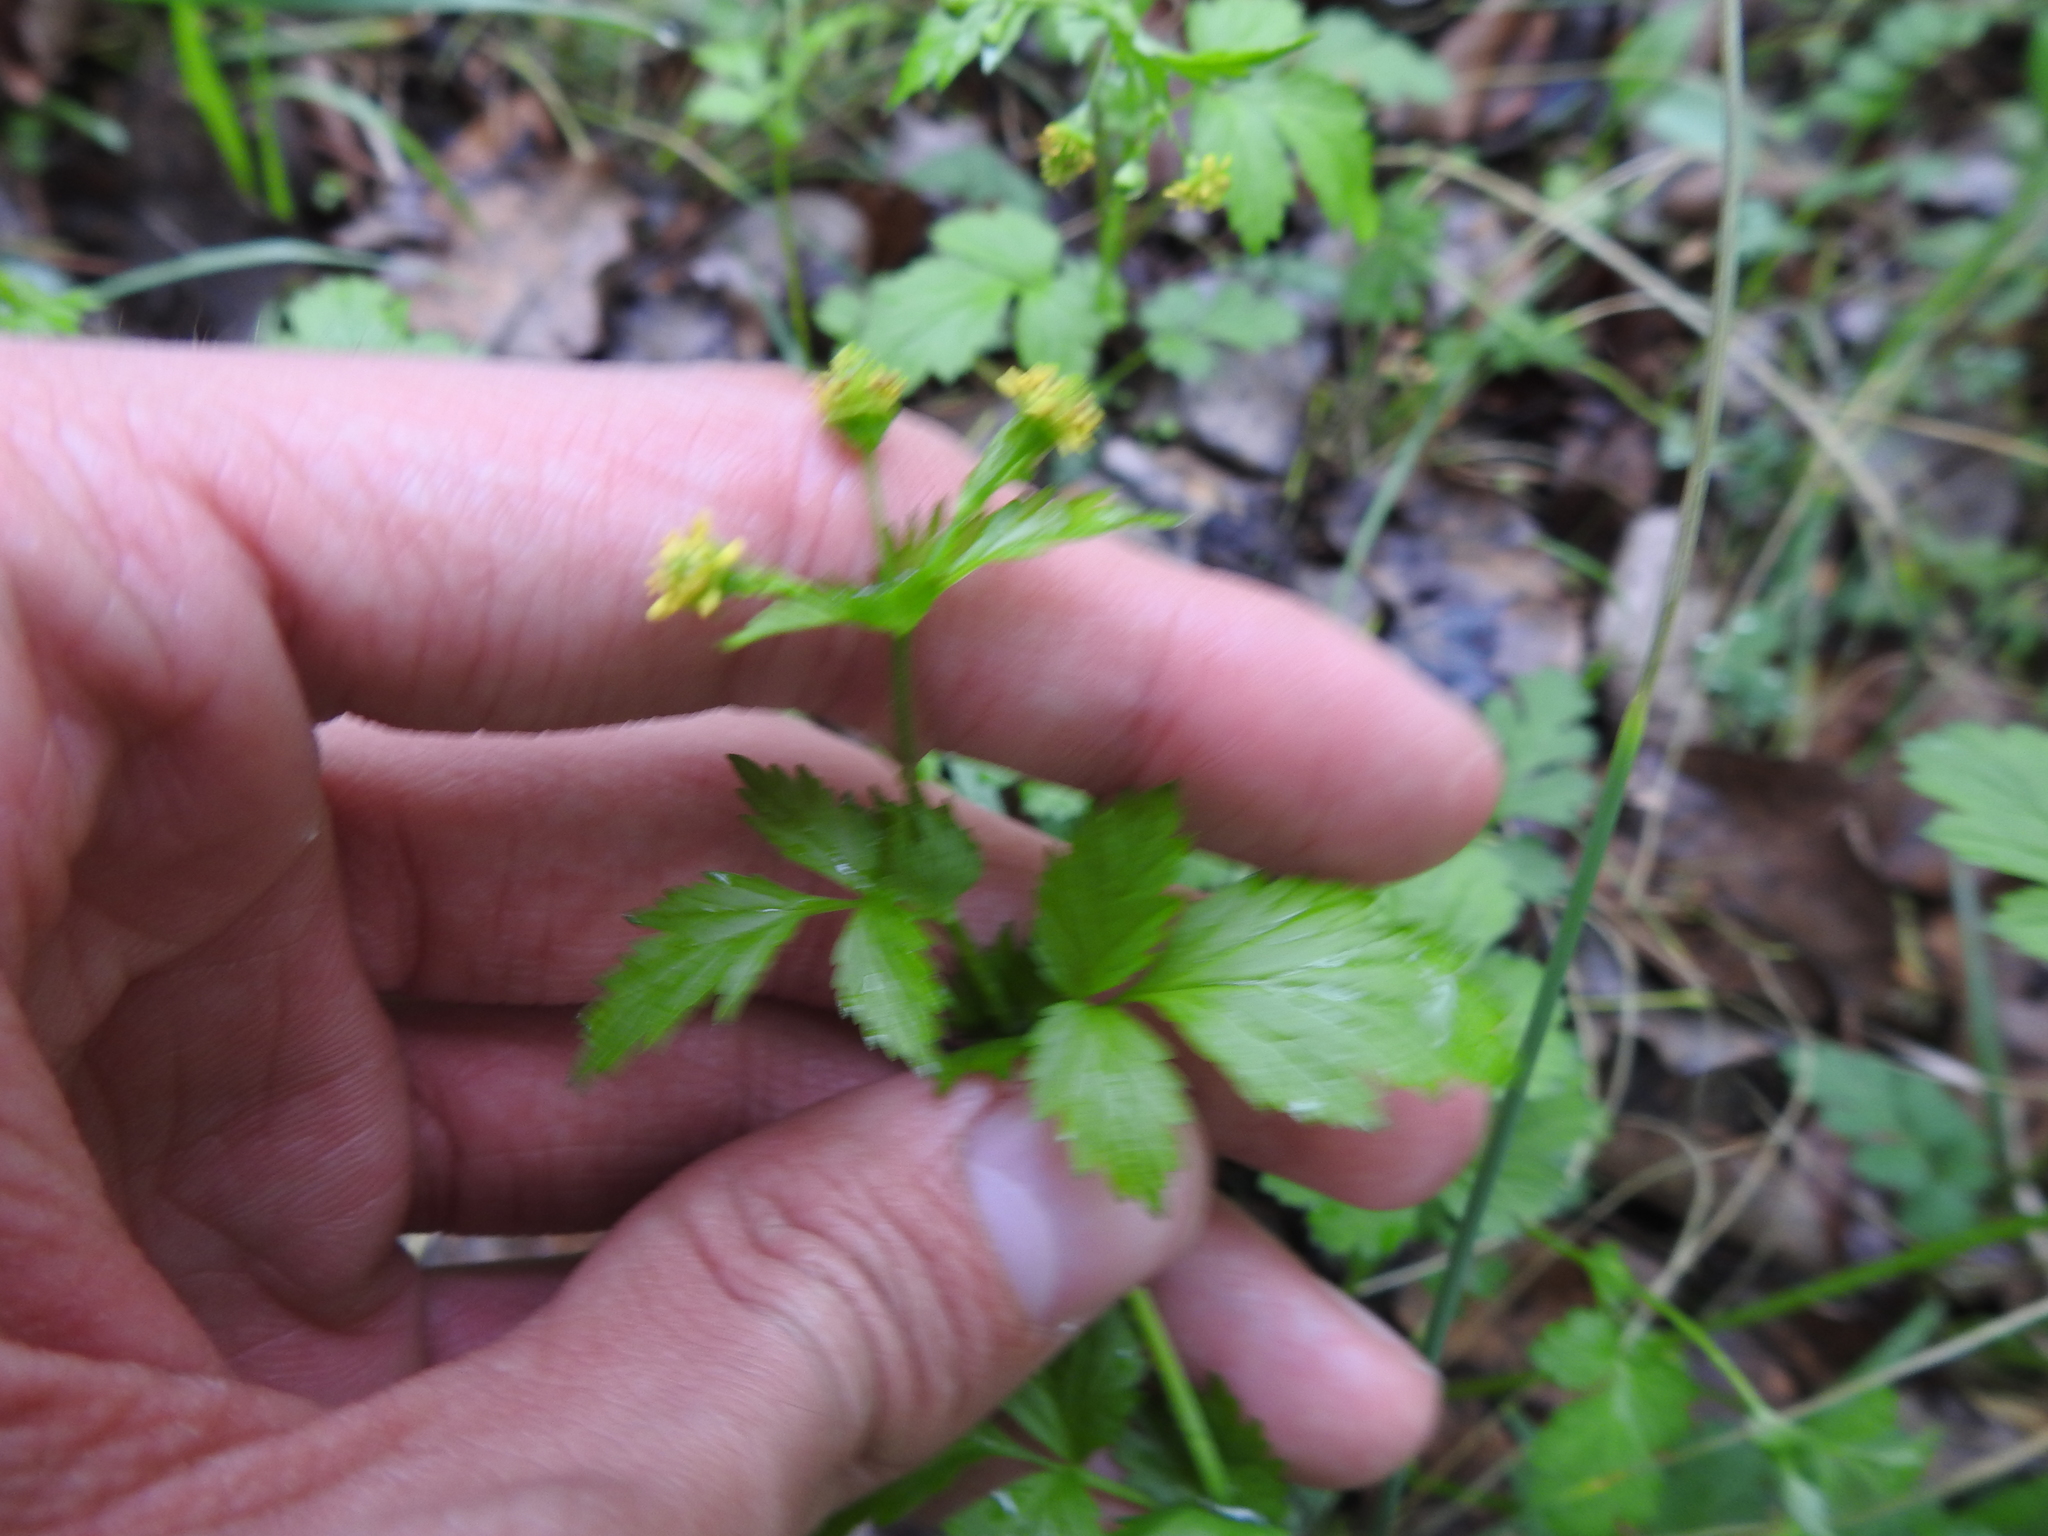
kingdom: Plantae
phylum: Tracheophyta
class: Magnoliopsida
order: Rosales
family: Rosaceae
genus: Geum
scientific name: Geum vernum
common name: Spring avens
